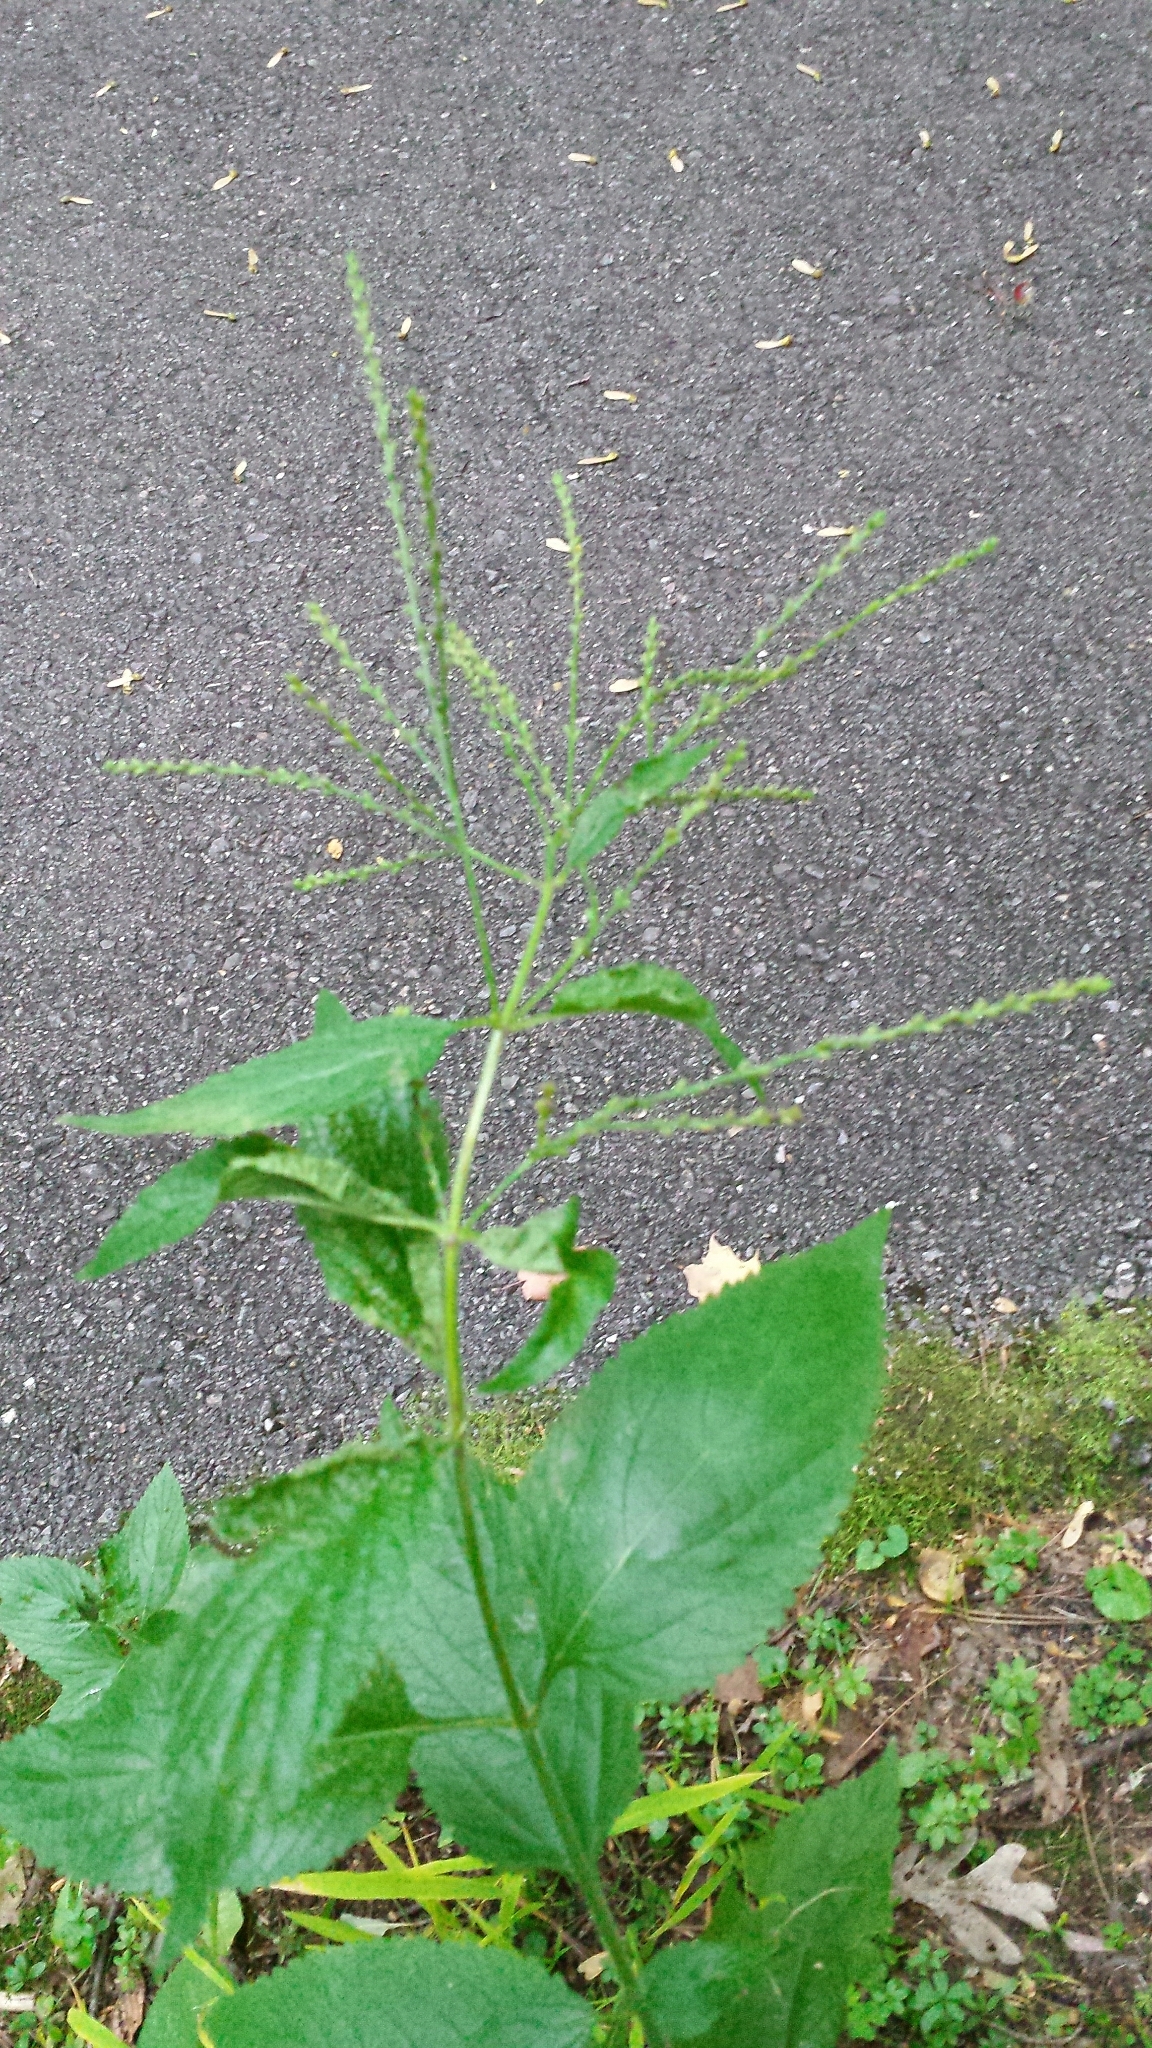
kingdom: Plantae
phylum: Tracheophyta
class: Magnoliopsida
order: Lamiales
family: Verbenaceae
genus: Verbena
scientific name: Verbena urticifolia
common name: Nettle-leaved vervain
